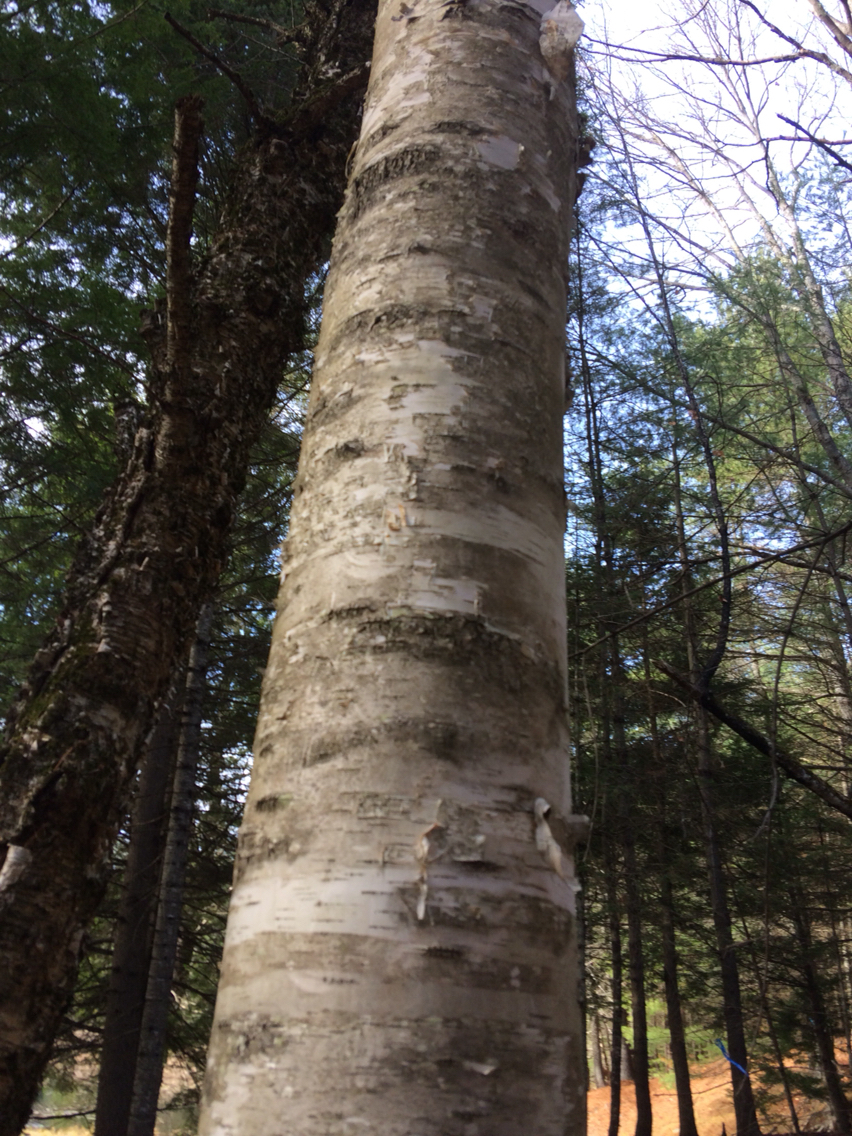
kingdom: Plantae
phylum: Tracheophyta
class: Magnoliopsida
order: Fagales
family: Betulaceae
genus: Betula
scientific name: Betula papyrifera
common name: Paper birch
